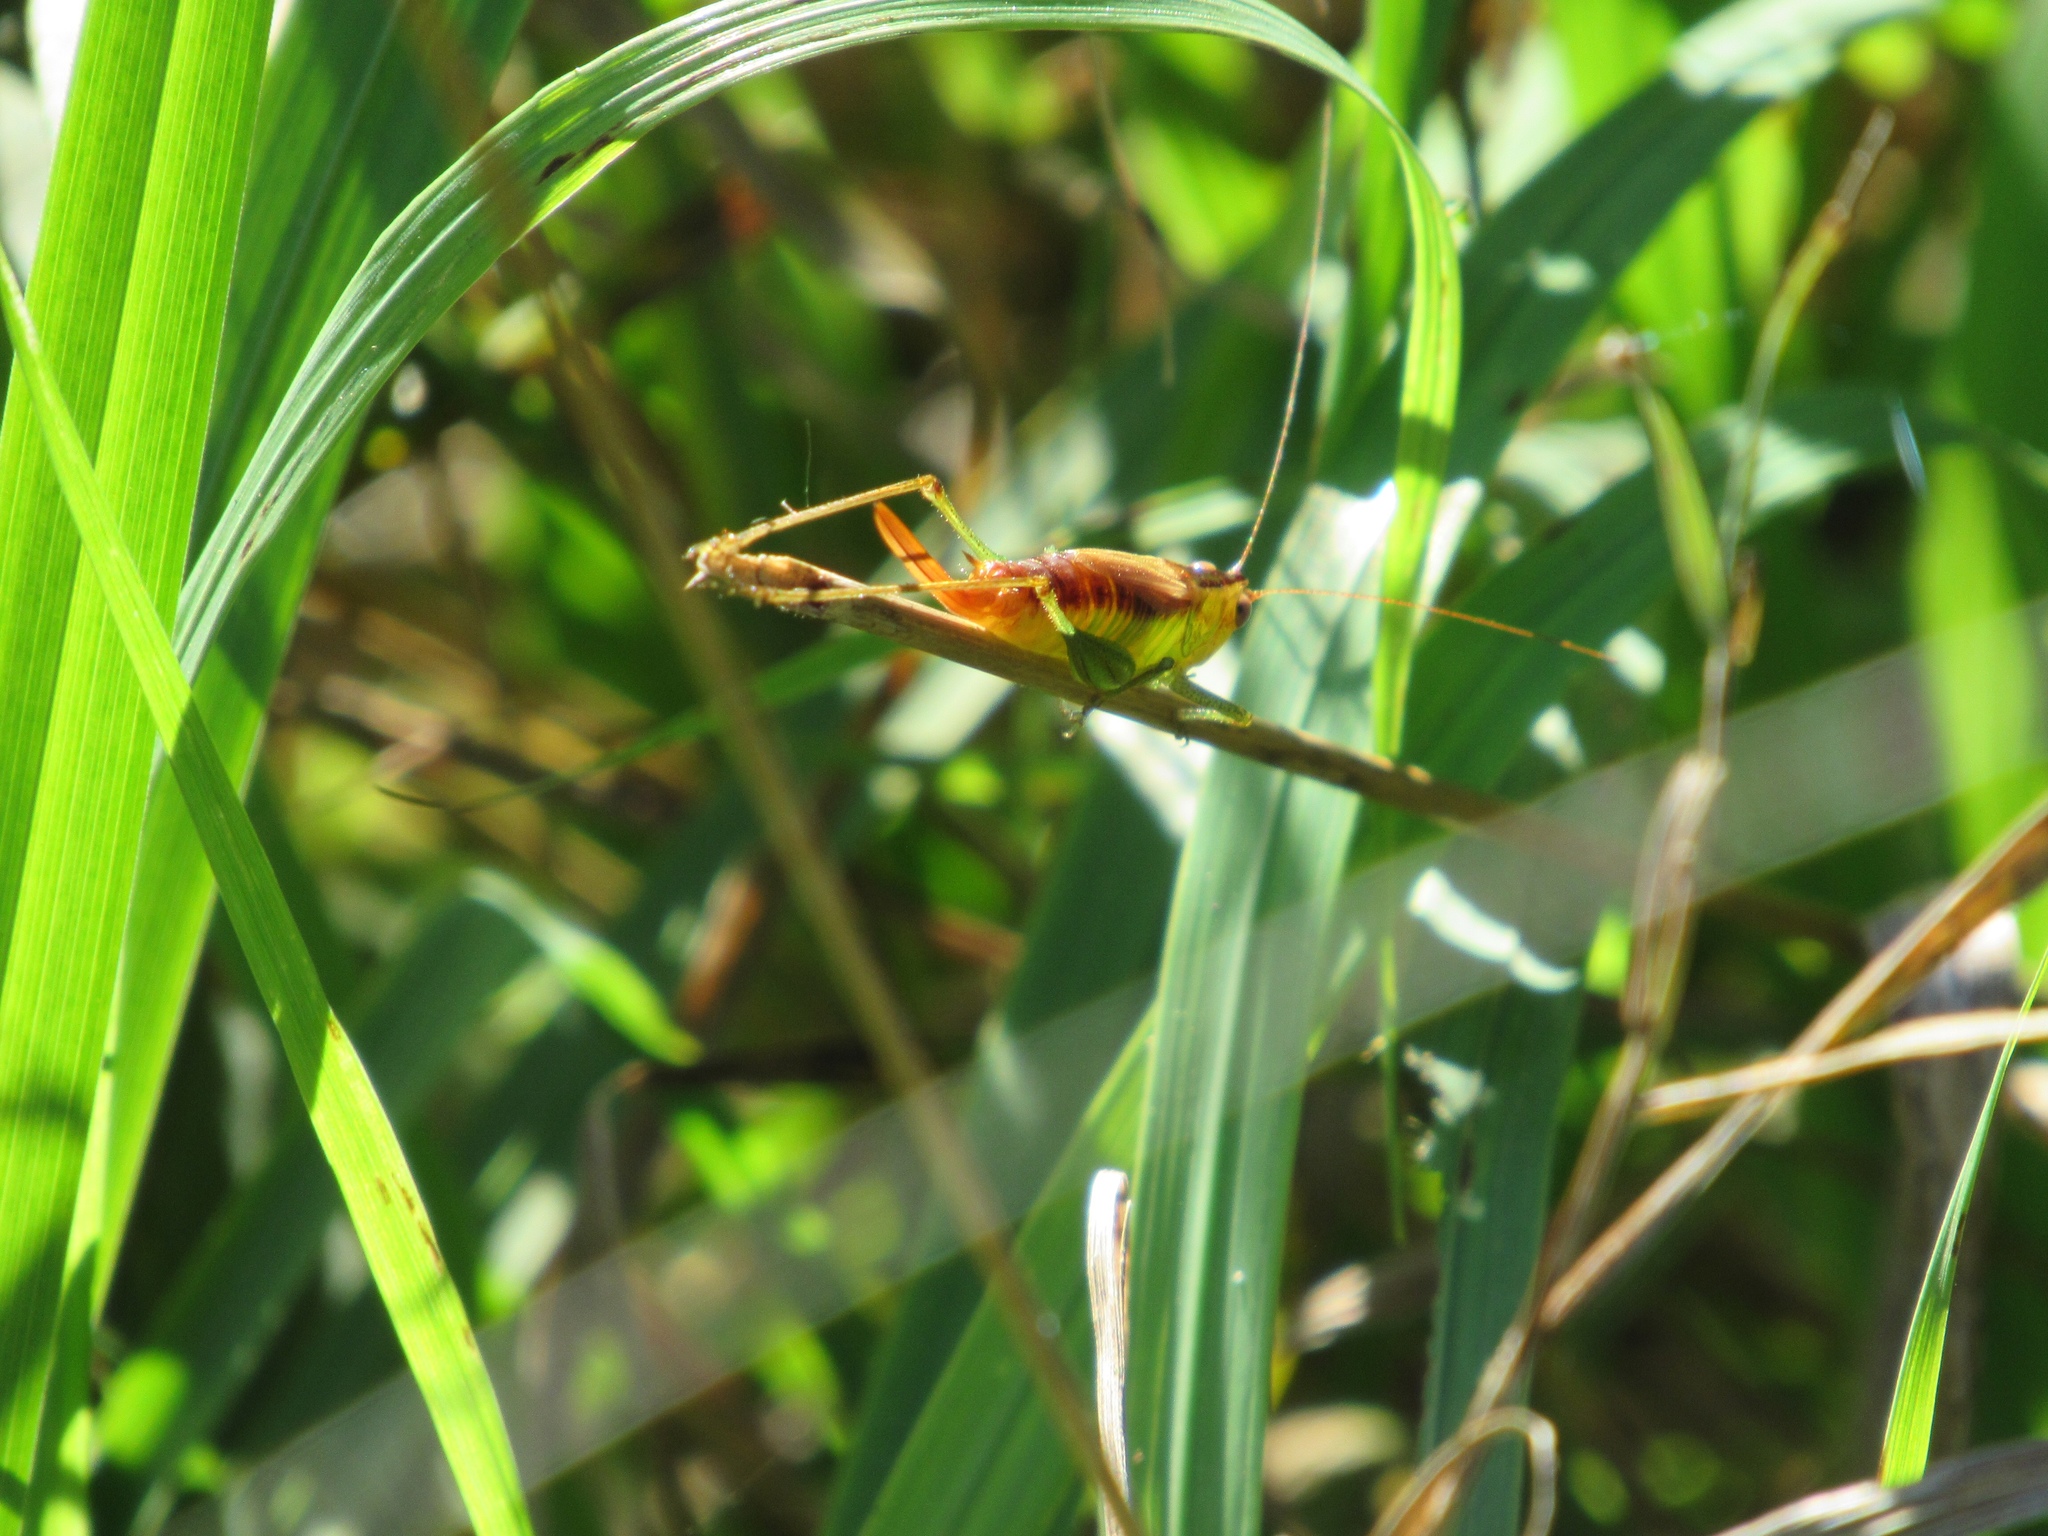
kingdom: Animalia
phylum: Arthropoda
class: Insecta
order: Orthoptera
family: Tettigoniidae
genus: Conocephalus
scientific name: Conocephalus brevipennis
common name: Short-winged meadow katydid
